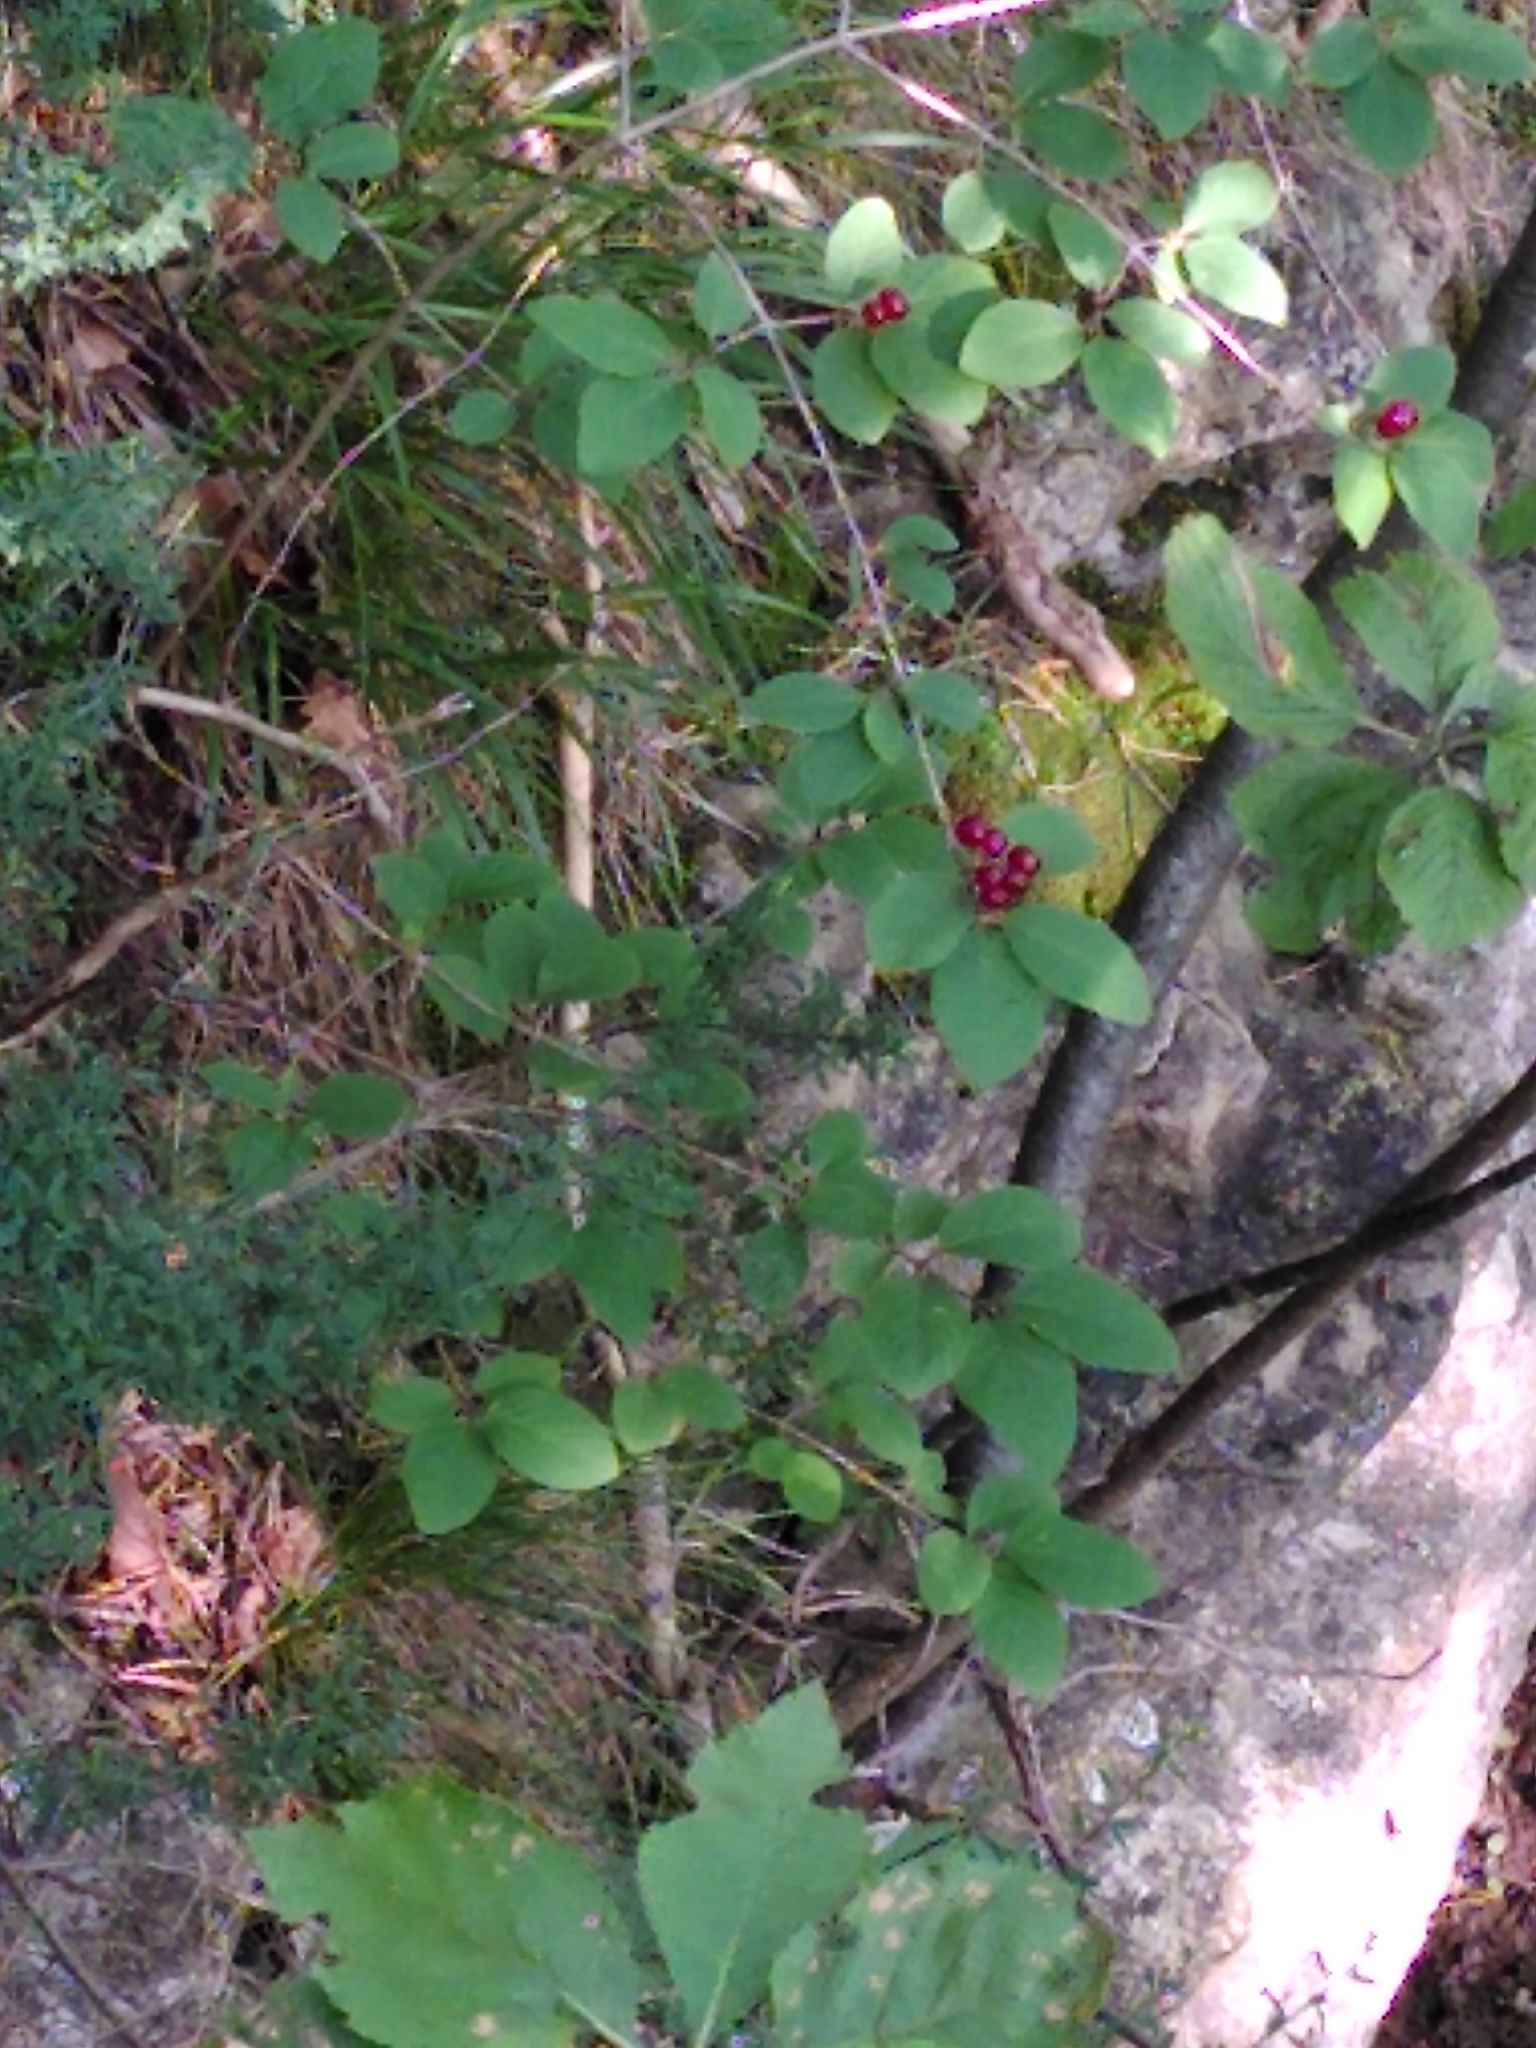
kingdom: Plantae
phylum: Tracheophyta
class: Magnoliopsida
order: Dipsacales
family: Caprifoliaceae
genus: Lonicera
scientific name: Lonicera xylosteum
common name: Fly honeysuckle
